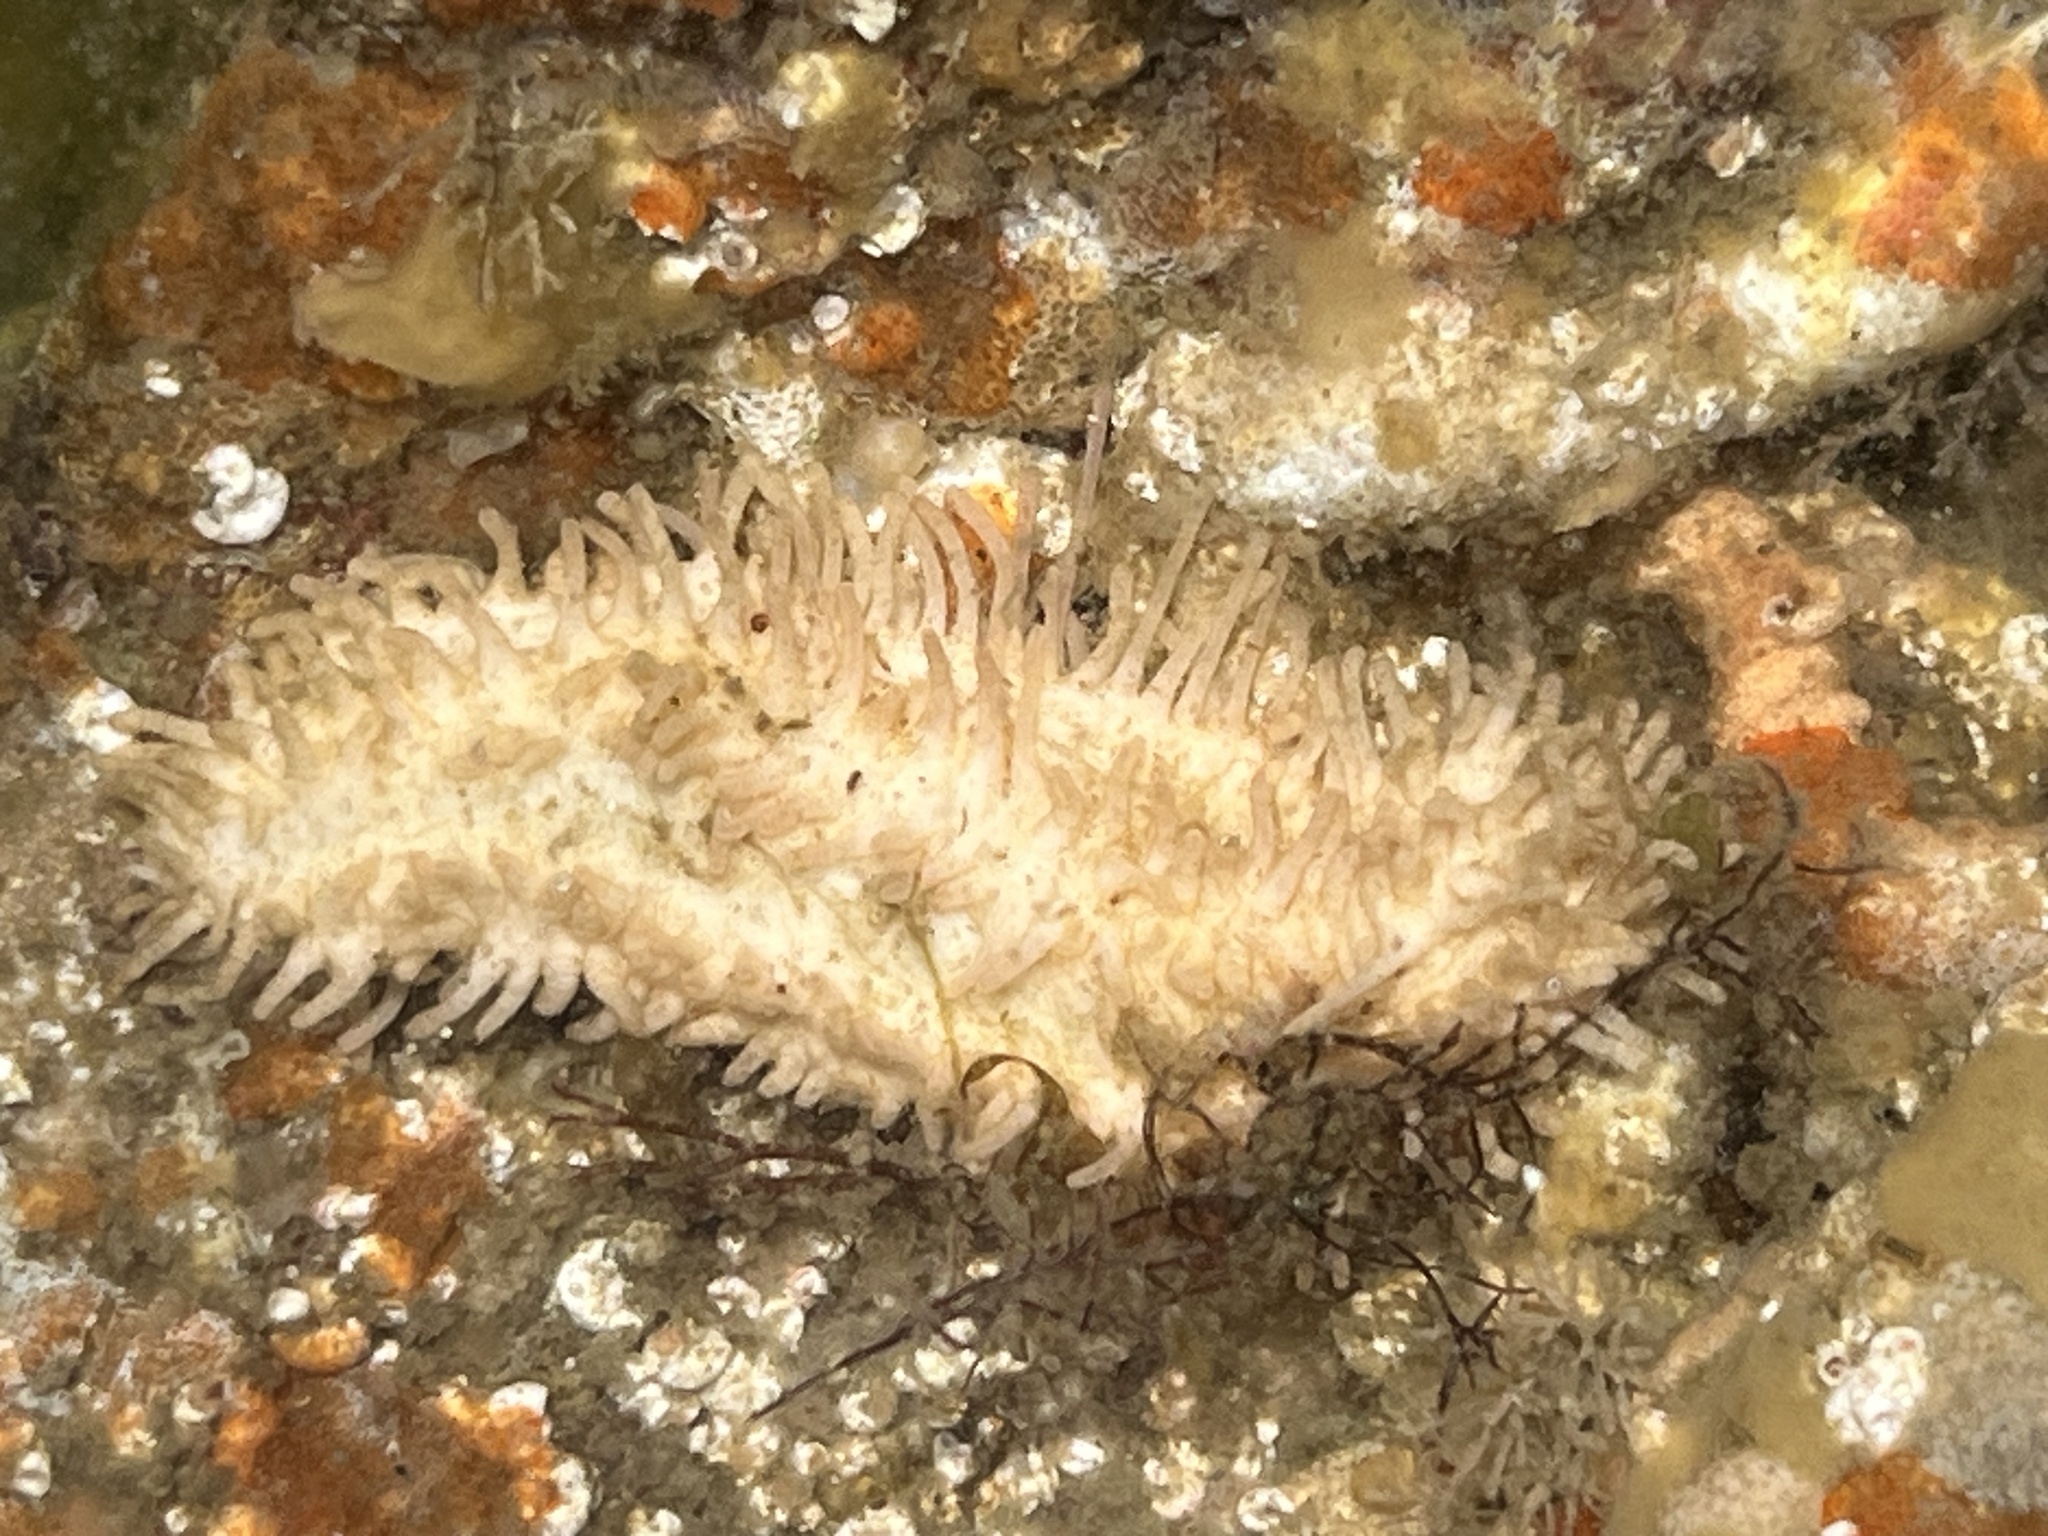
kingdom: Animalia
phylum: Echinodermata
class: Holothuroidea
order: Dendrochirotida
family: Sclerodactylidae
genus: Eupentacta
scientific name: Eupentacta quinquesemita
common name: Pentamerous sea cucumber
